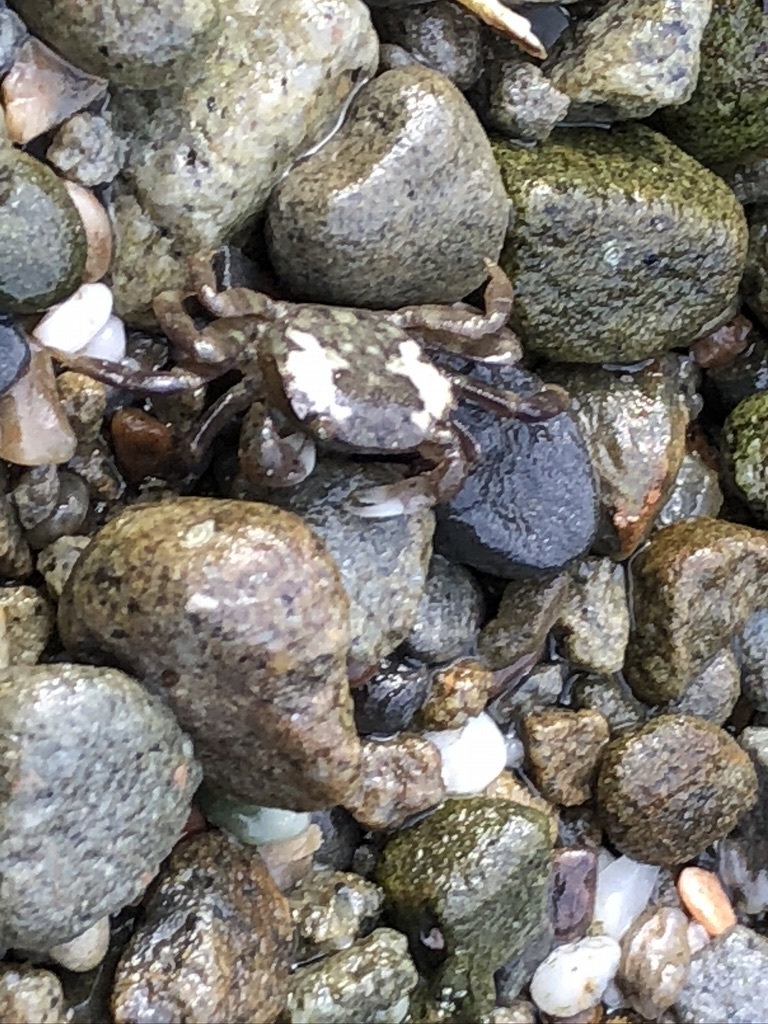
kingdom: Animalia
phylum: Arthropoda
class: Malacostraca
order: Decapoda
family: Varunidae
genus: Hemigrapsus
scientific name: Hemigrapsus nudus
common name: Purple shore crab
